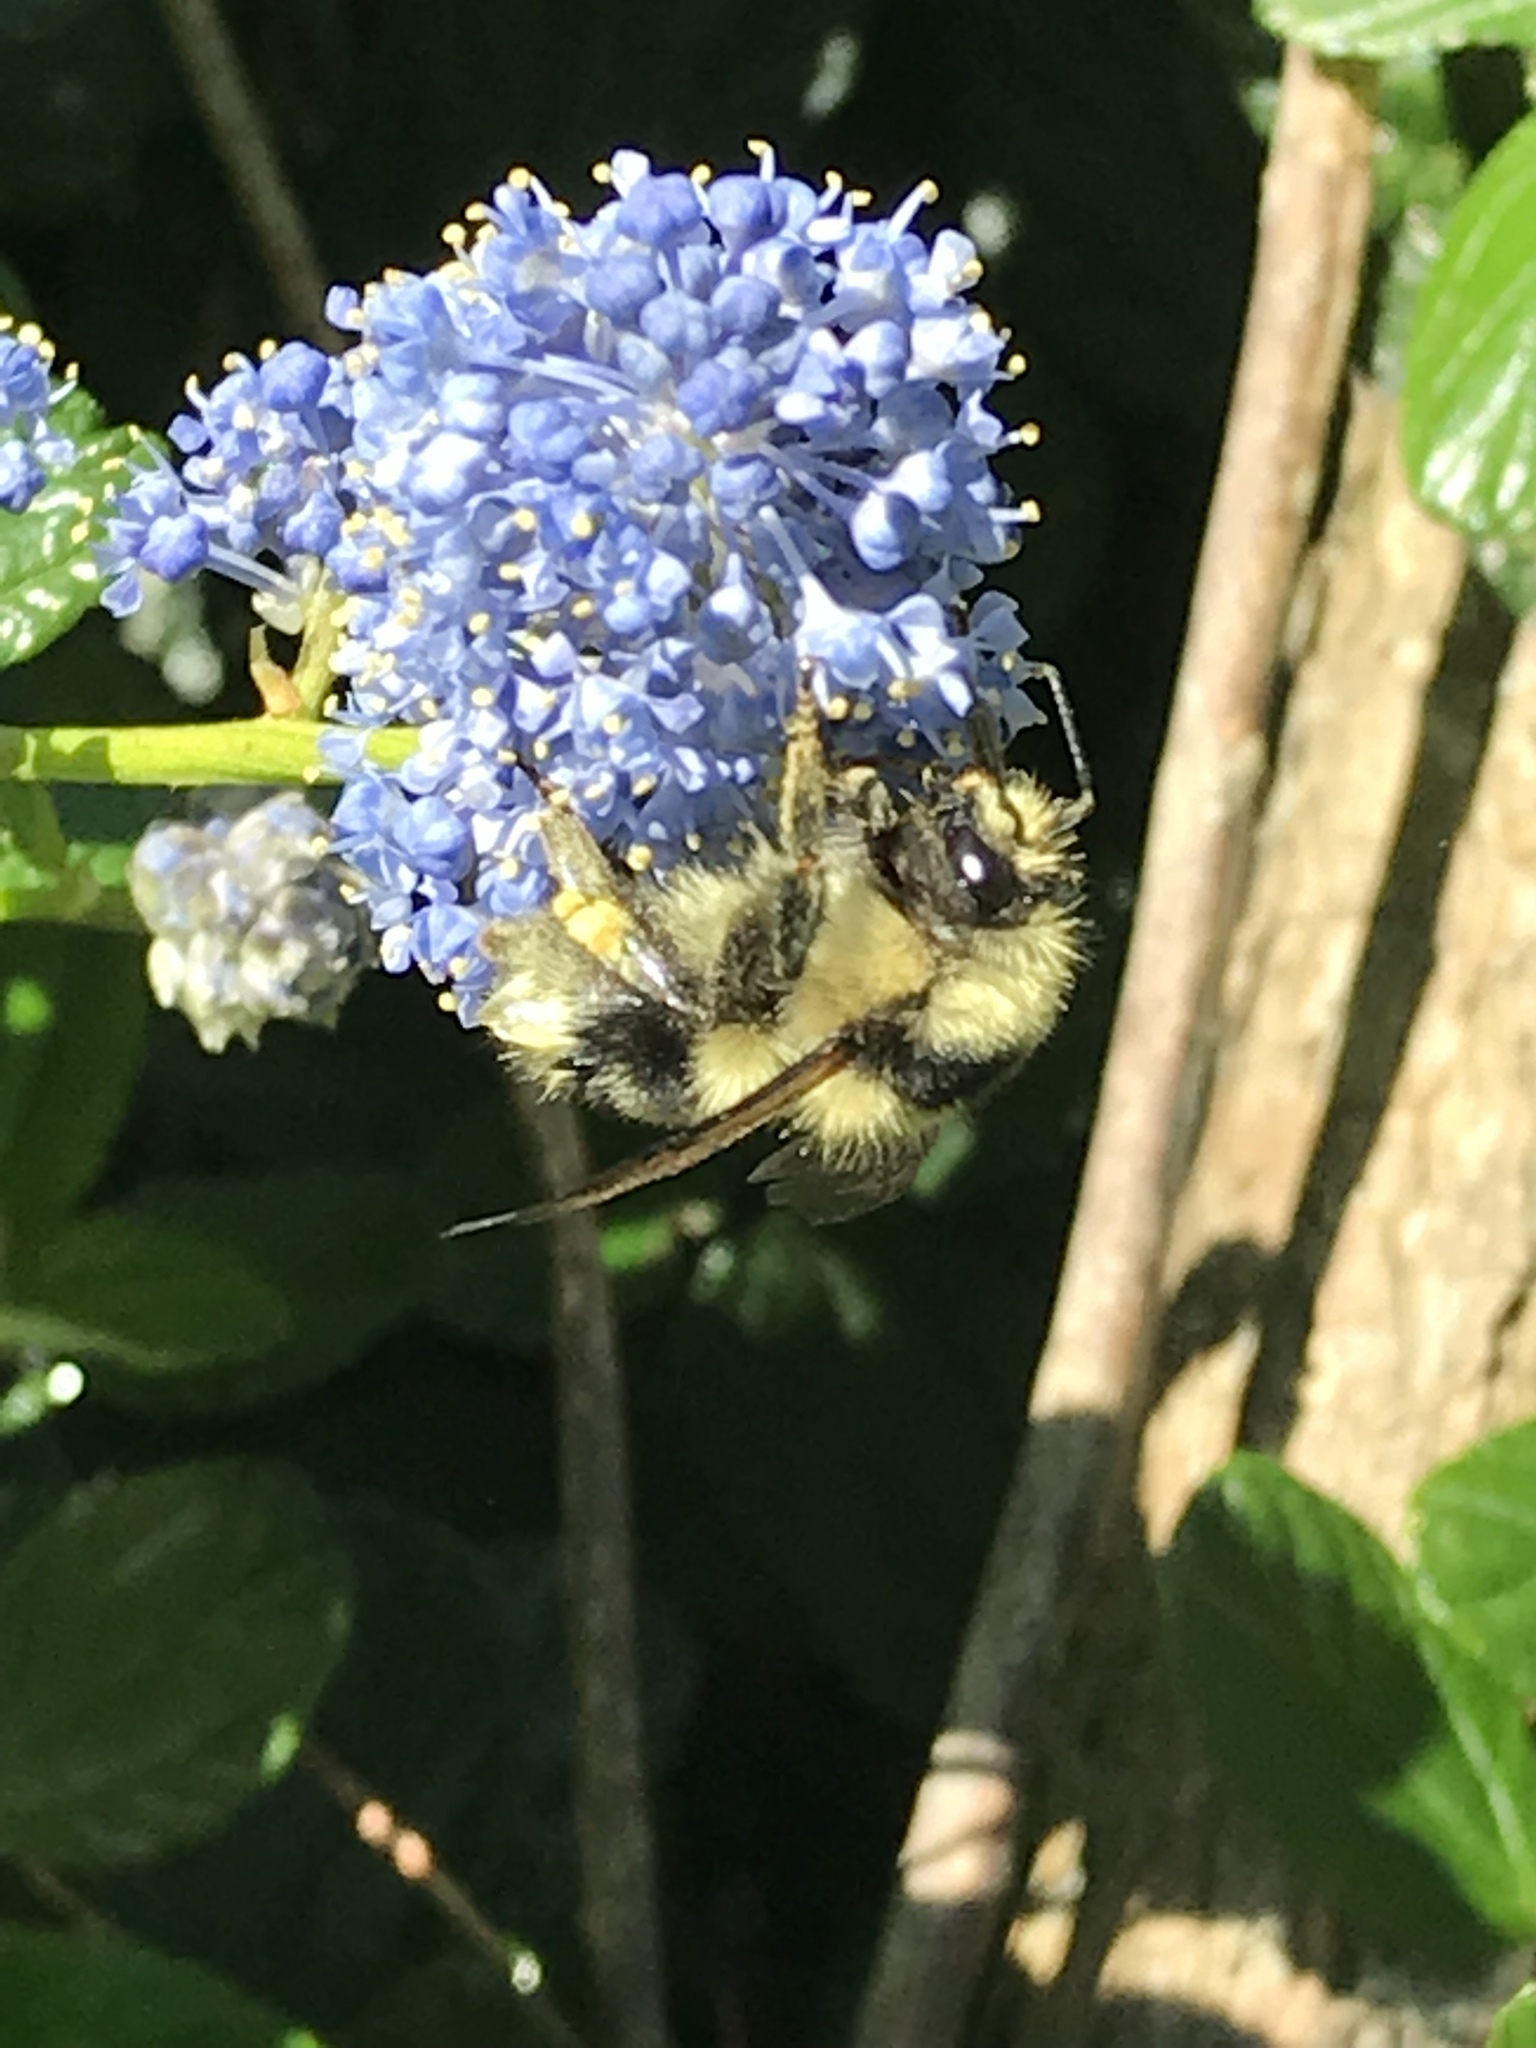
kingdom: Animalia
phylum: Arthropoda
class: Insecta
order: Hymenoptera
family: Apidae
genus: Bombus
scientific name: Bombus melanopygus
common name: Black tail bumble bee
